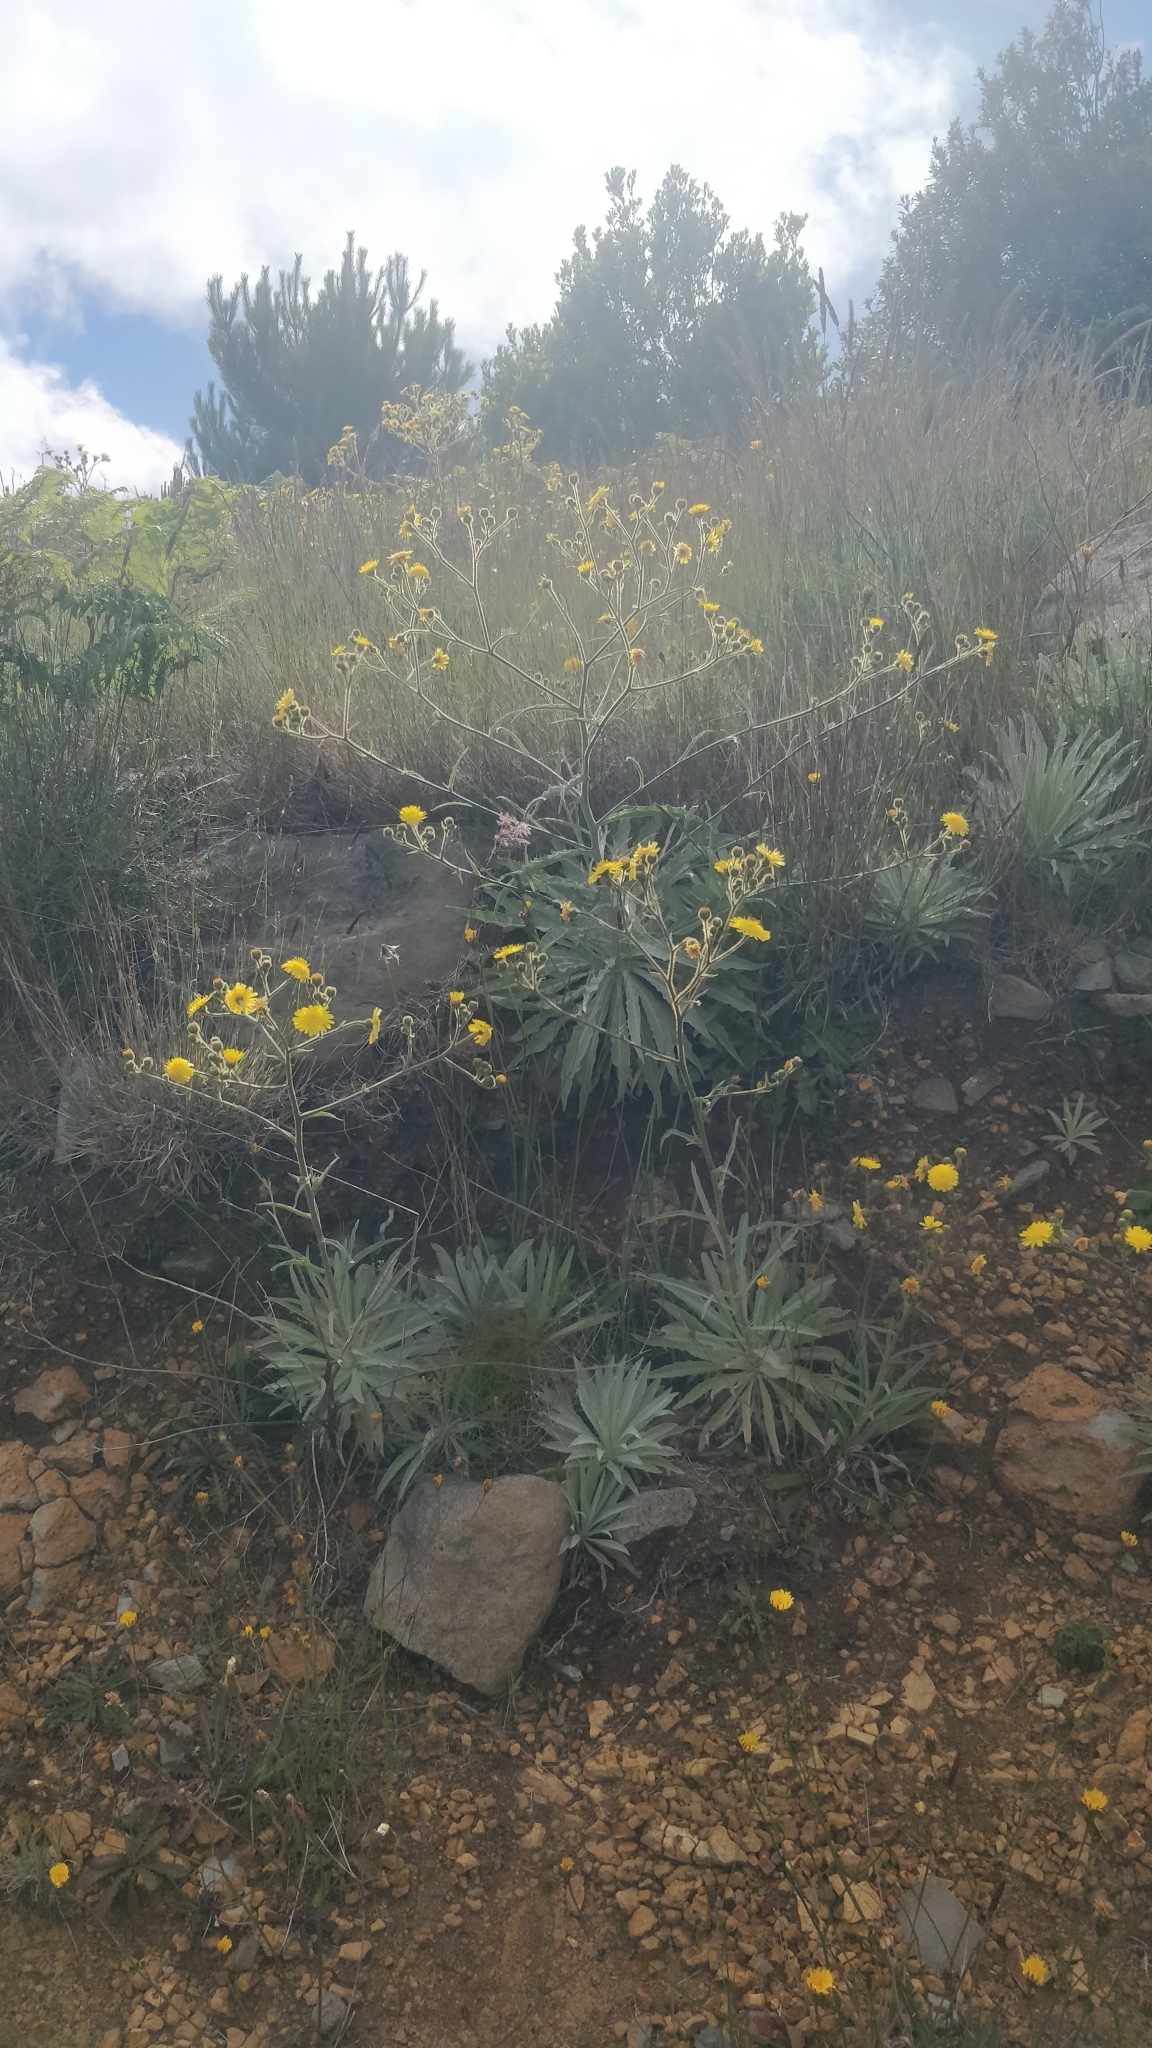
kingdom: Plantae
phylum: Tracheophyta
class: Magnoliopsida
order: Asterales
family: Asteraceae
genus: Andryala
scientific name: Andryala glandulosa
